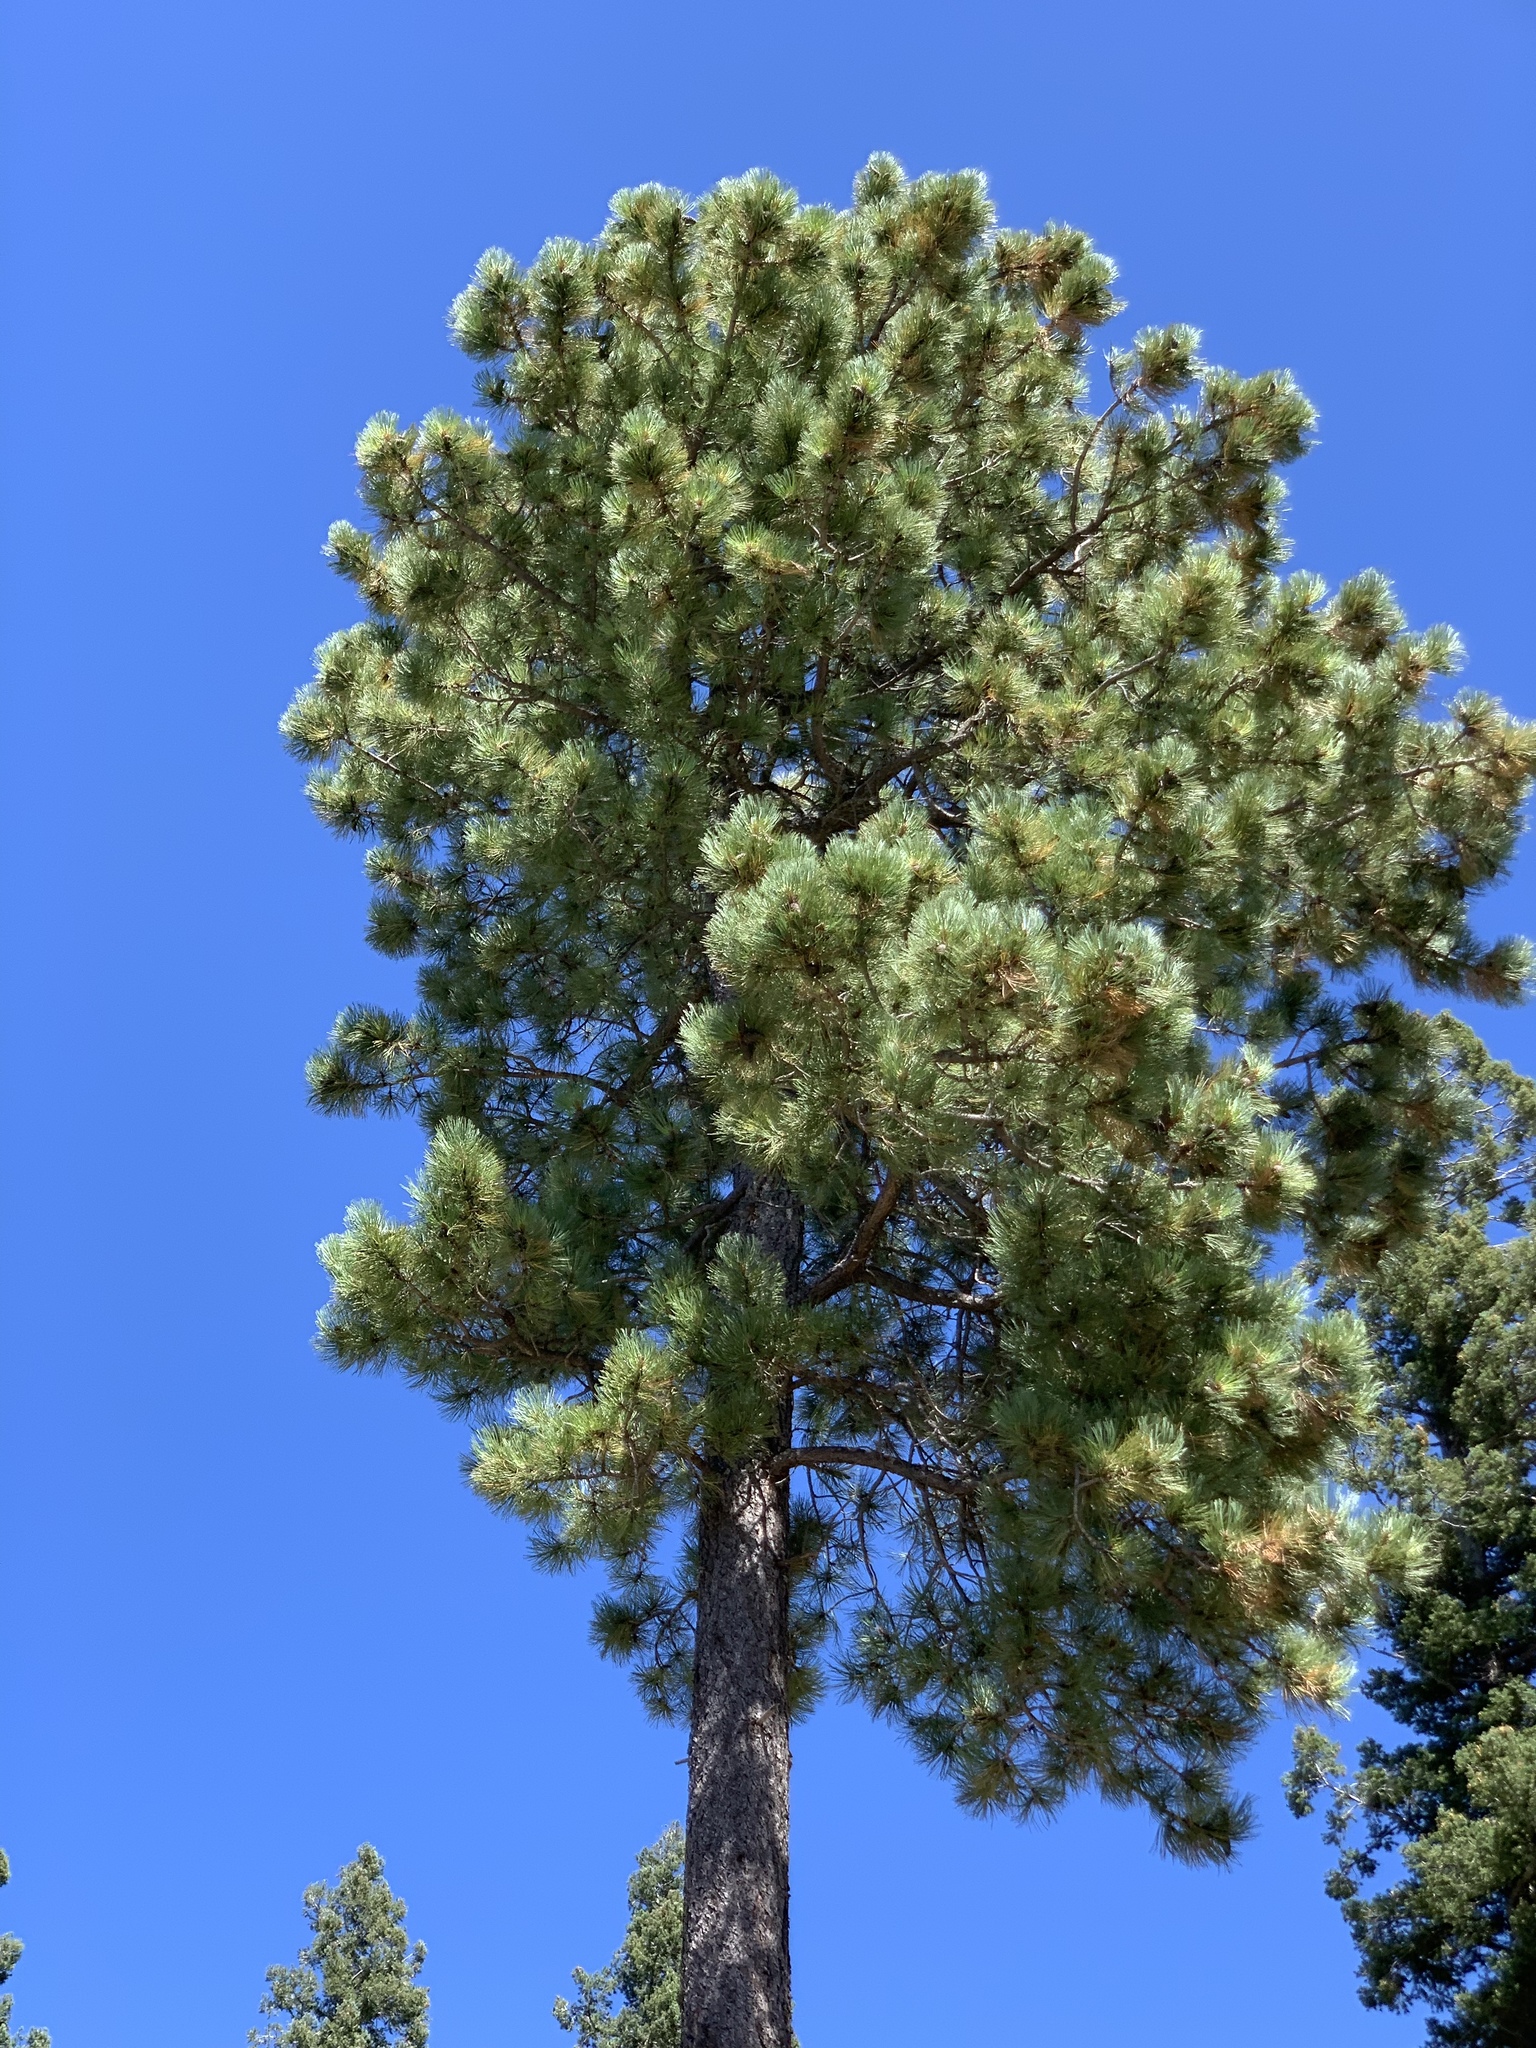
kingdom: Plantae
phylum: Tracheophyta
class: Pinopsida
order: Pinales
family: Pinaceae
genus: Pinus
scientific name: Pinus ponderosa
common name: Western yellow-pine
